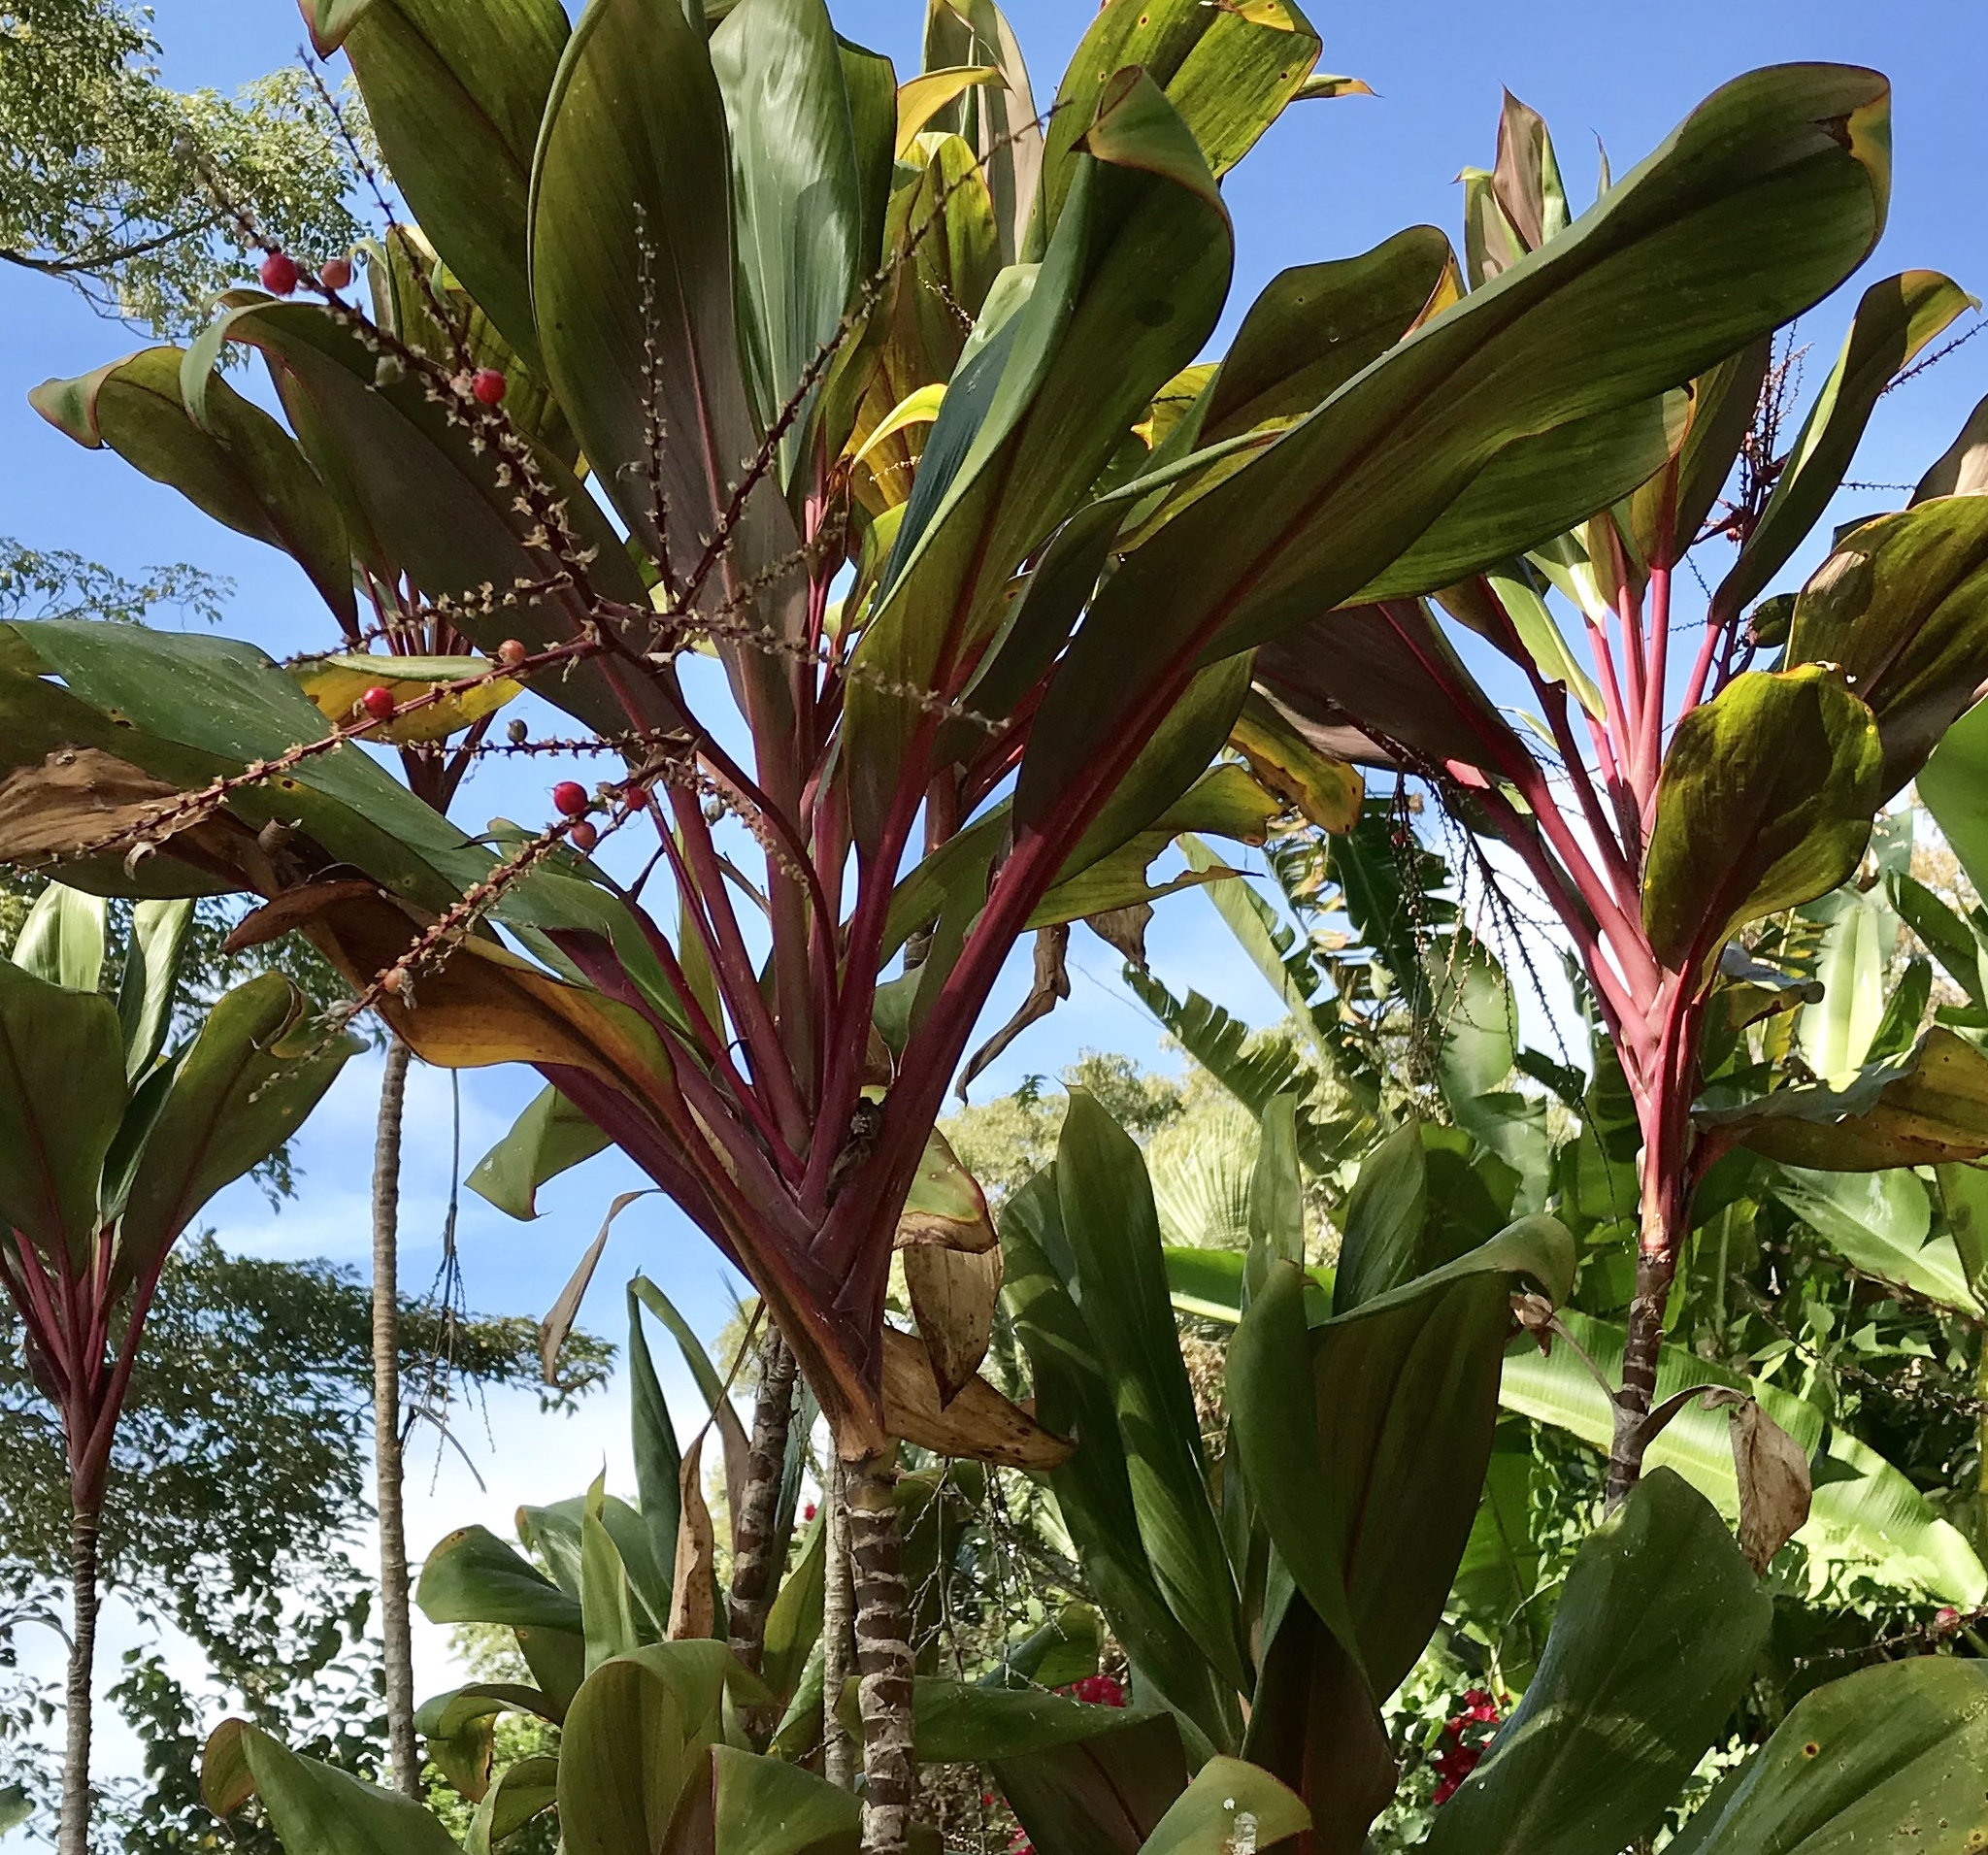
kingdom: Plantae
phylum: Tracheophyta
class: Liliopsida
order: Asparagales
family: Asparagaceae
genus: Cordyline
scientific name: Cordyline fruticosa
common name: Good-luck-plant
